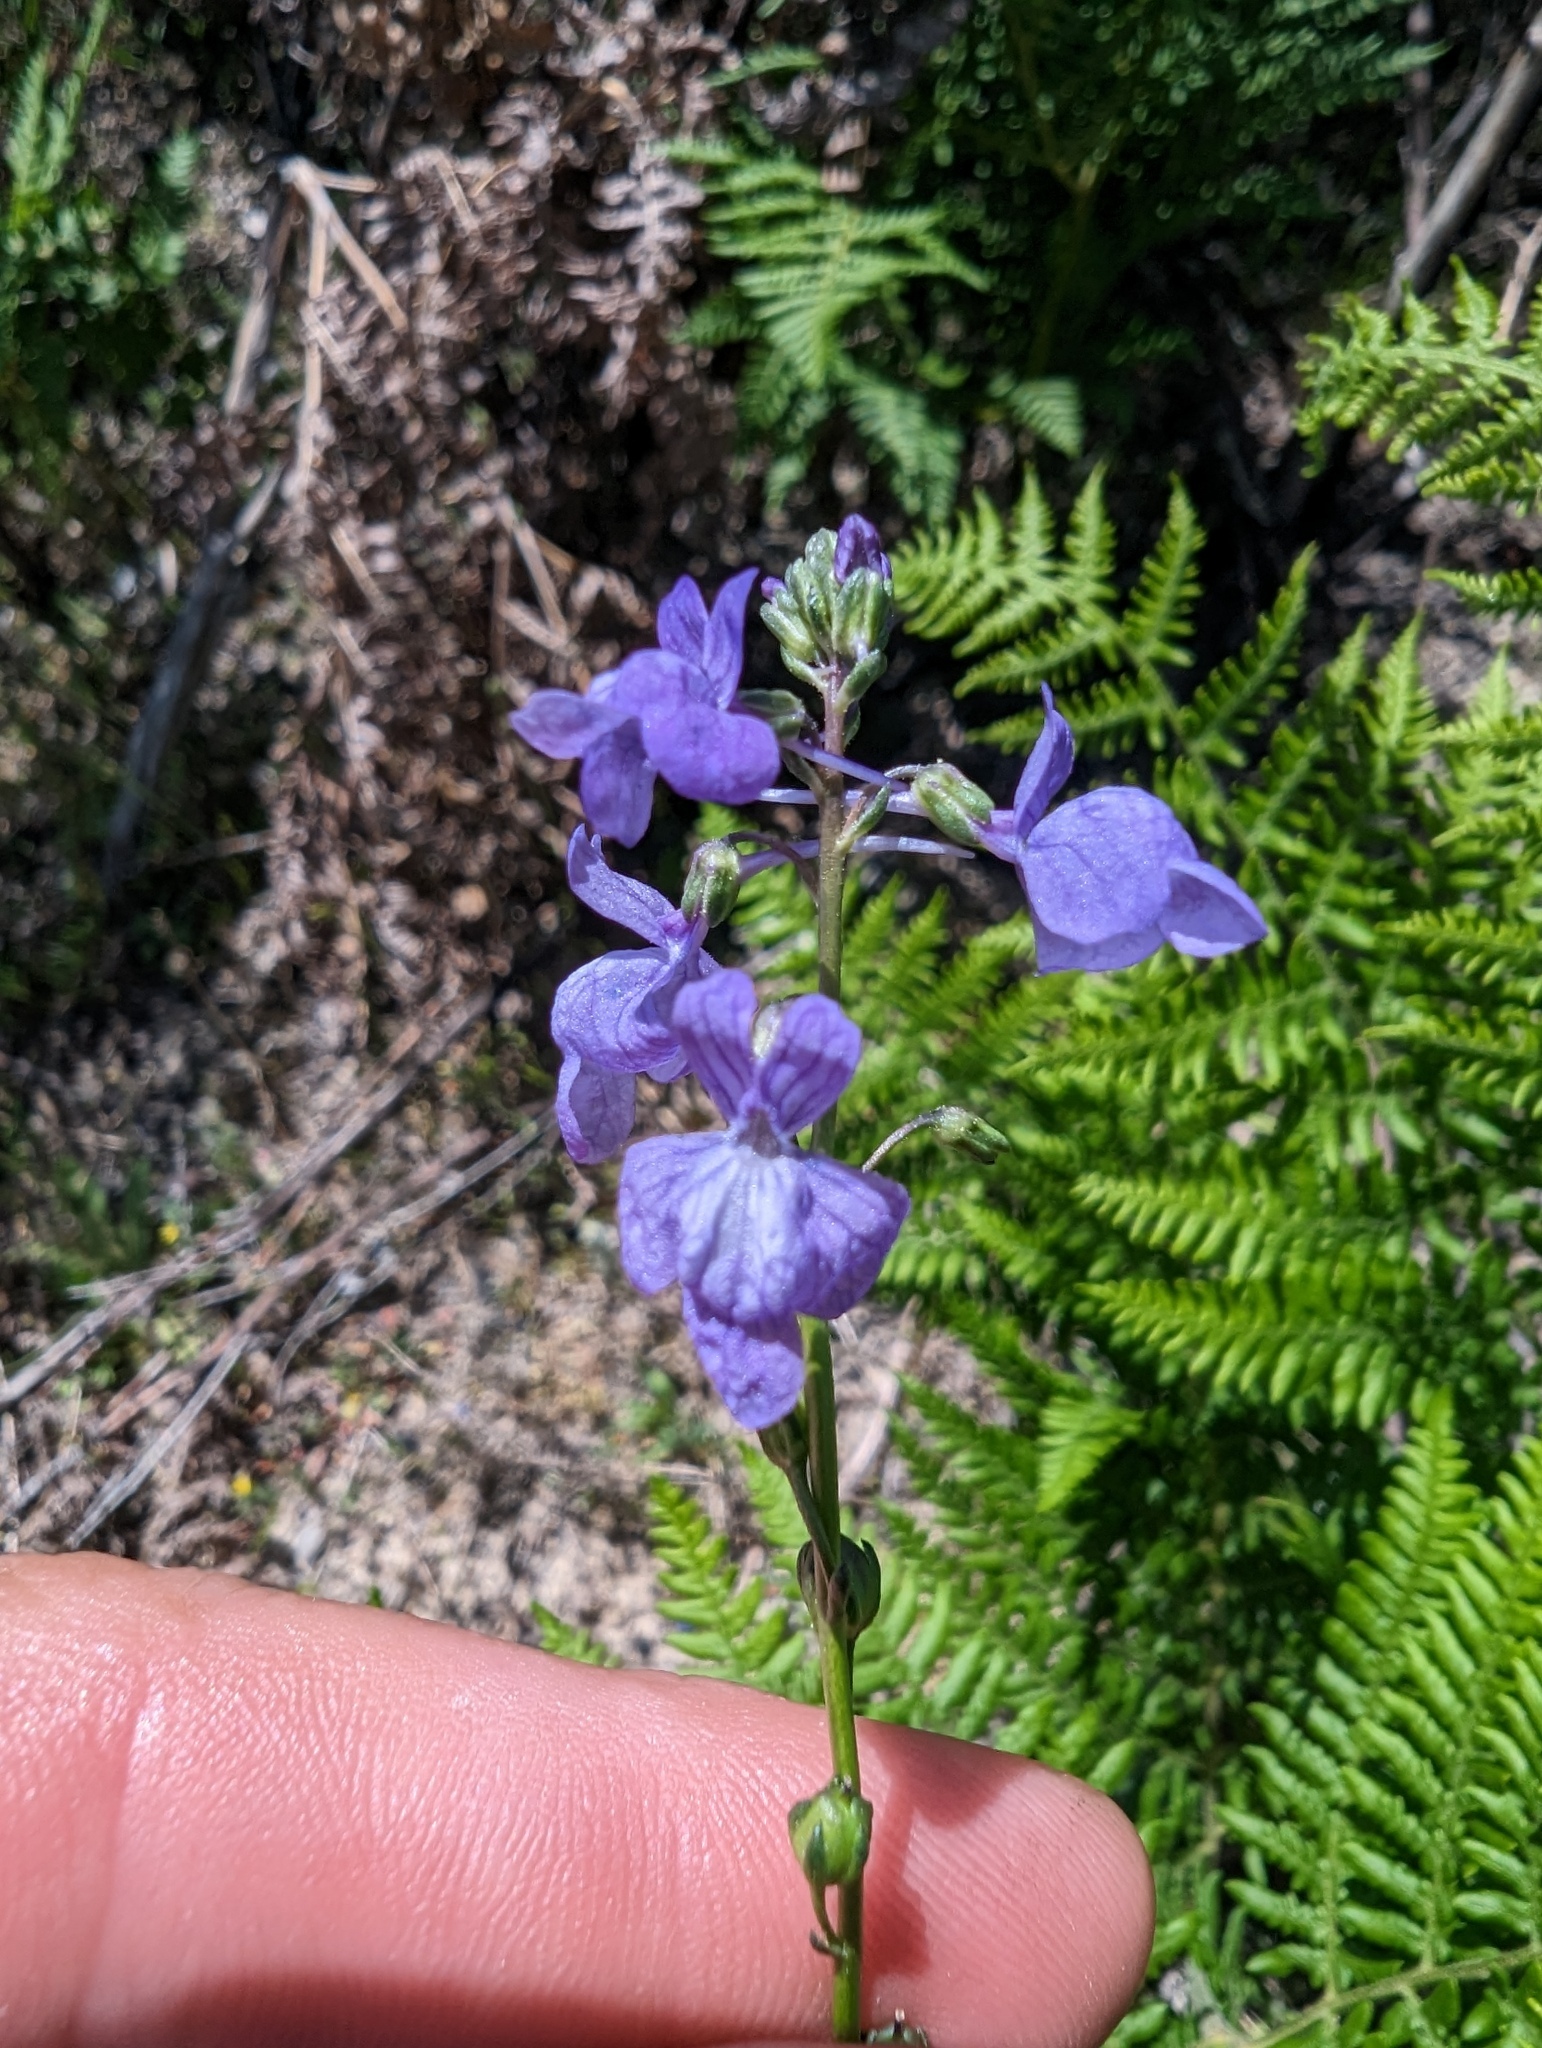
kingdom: Plantae
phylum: Tracheophyta
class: Magnoliopsida
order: Lamiales
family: Plantaginaceae
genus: Nuttallanthus
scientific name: Nuttallanthus texanus
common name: Texas toadflax
